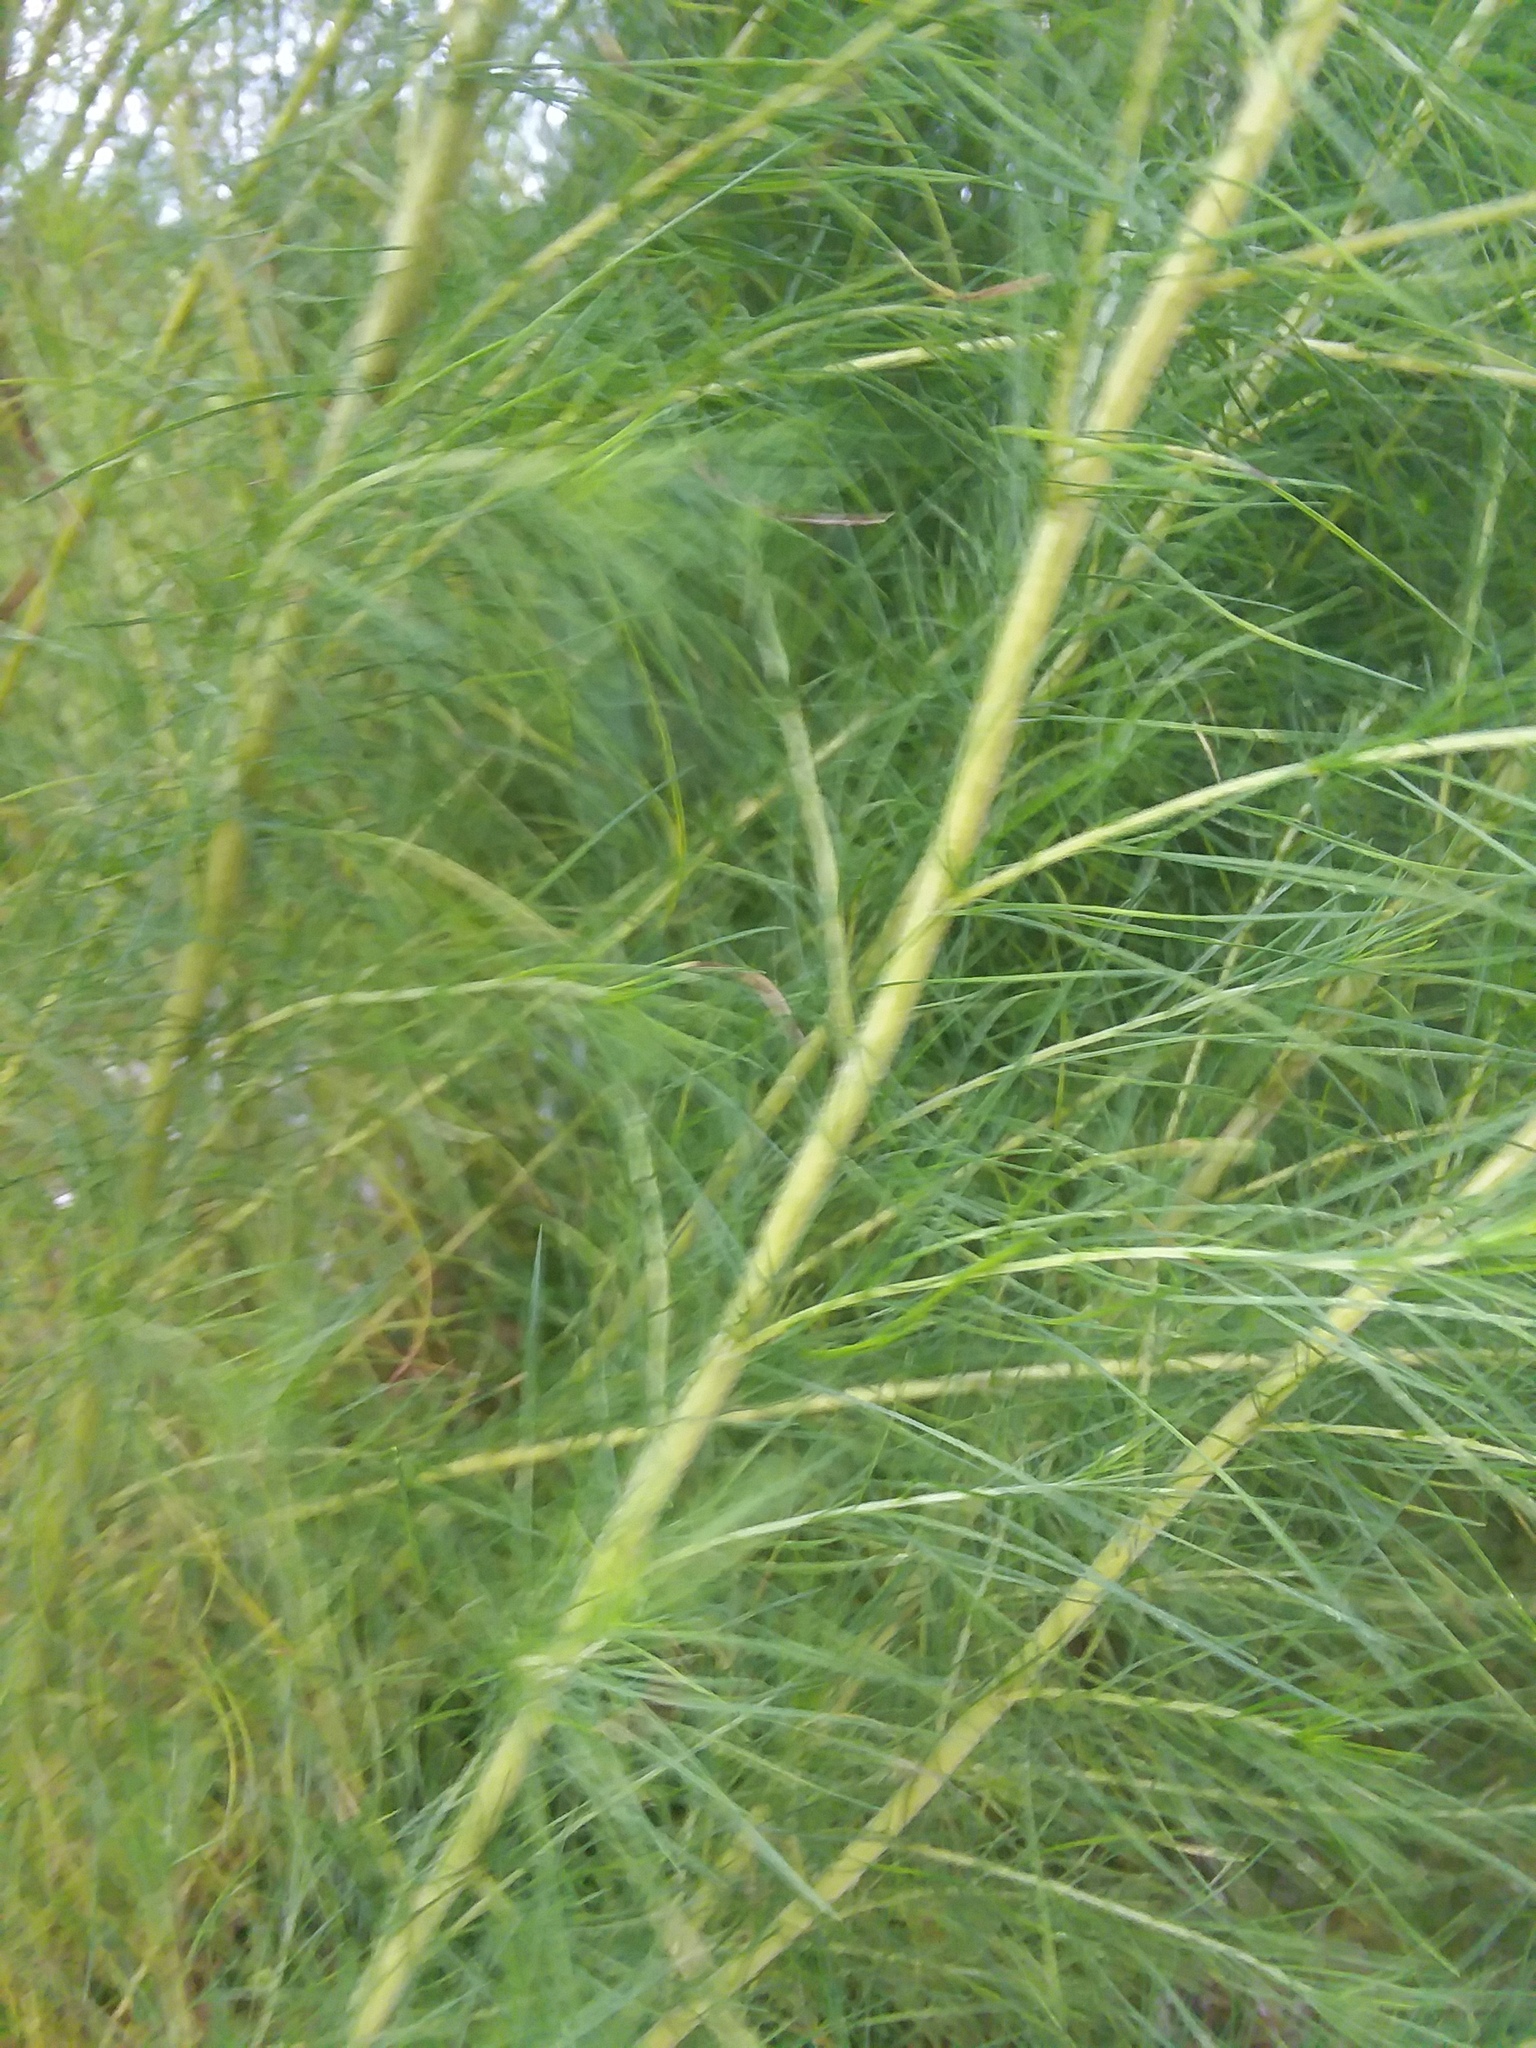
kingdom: Plantae
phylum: Tracheophyta
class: Magnoliopsida
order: Asterales
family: Asteraceae
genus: Eupatorium
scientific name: Eupatorium capillifolium
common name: Dog-fennel
